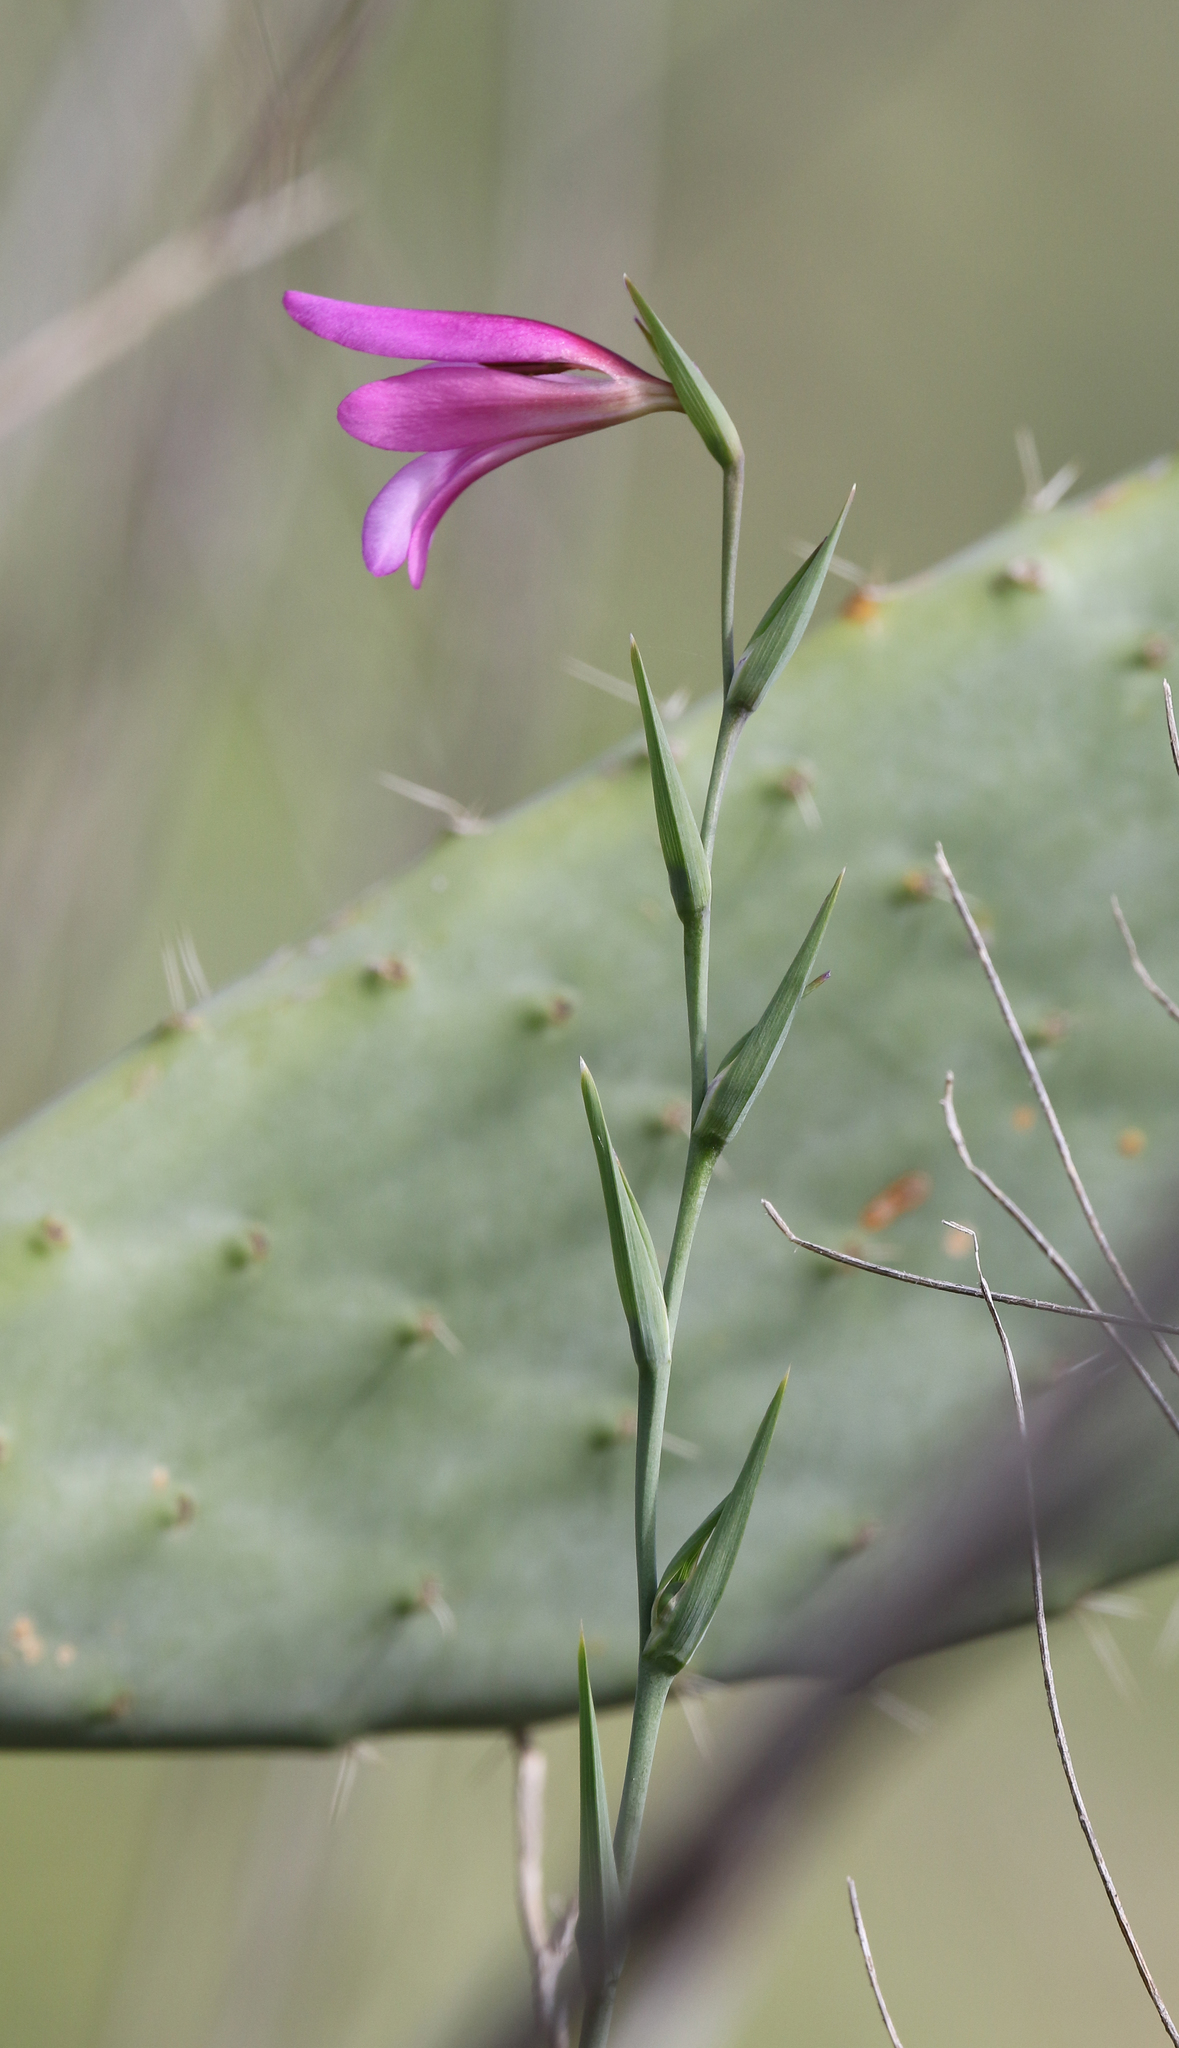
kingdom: Plantae
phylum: Tracheophyta
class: Liliopsida
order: Asparagales
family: Iridaceae
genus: Gladiolus
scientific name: Gladiolus italicus
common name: Field gladiolus
